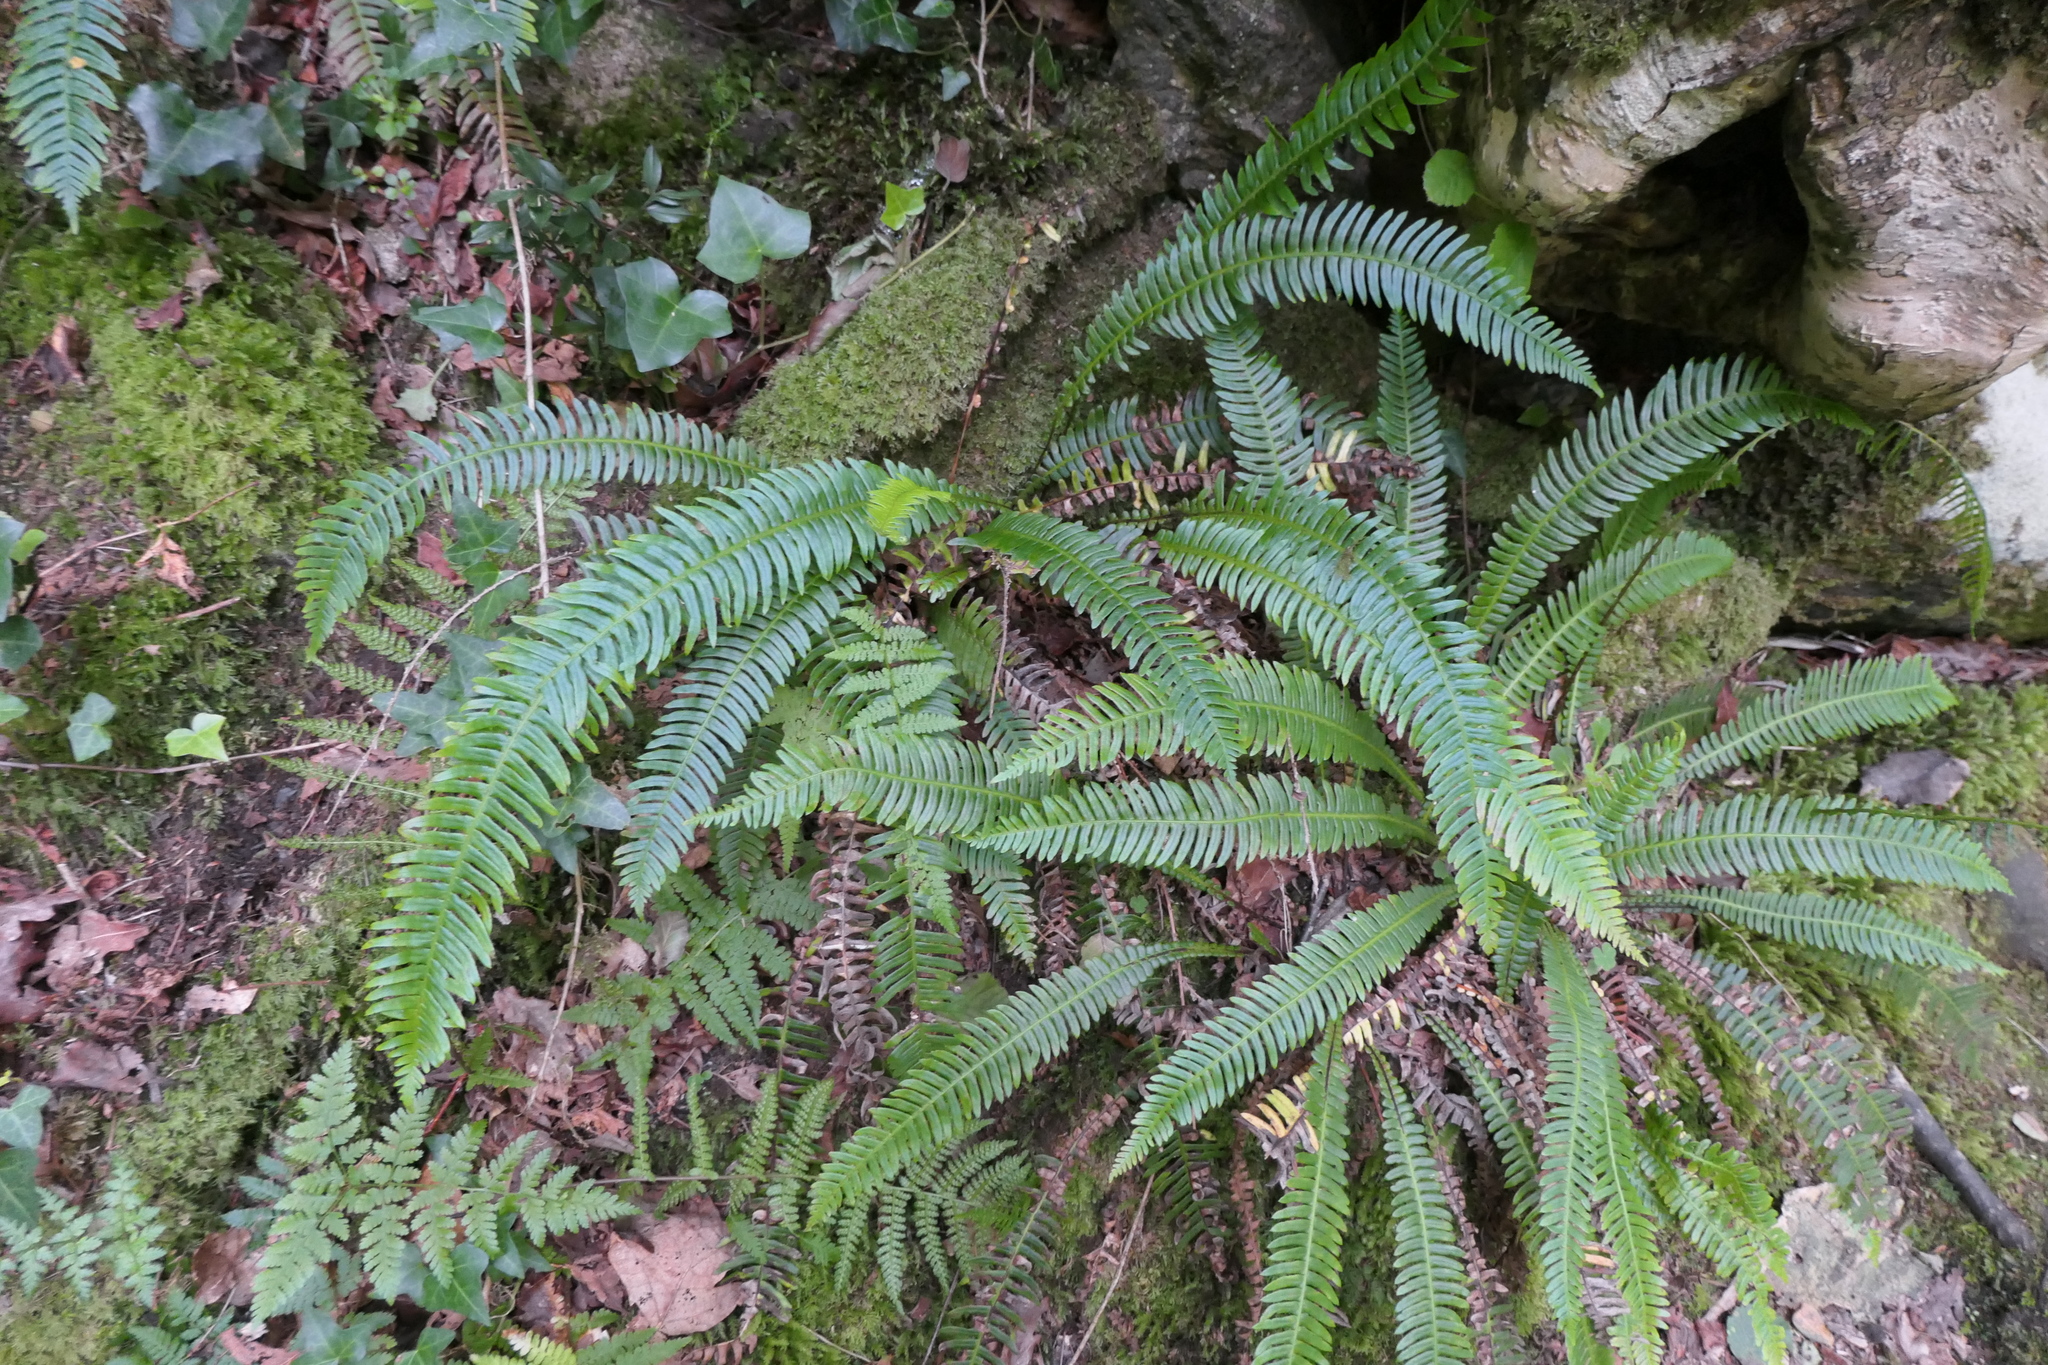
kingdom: Plantae
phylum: Tracheophyta
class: Polypodiopsida
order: Polypodiales
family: Blechnaceae
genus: Struthiopteris
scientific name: Struthiopteris spicant
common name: Deer fern
